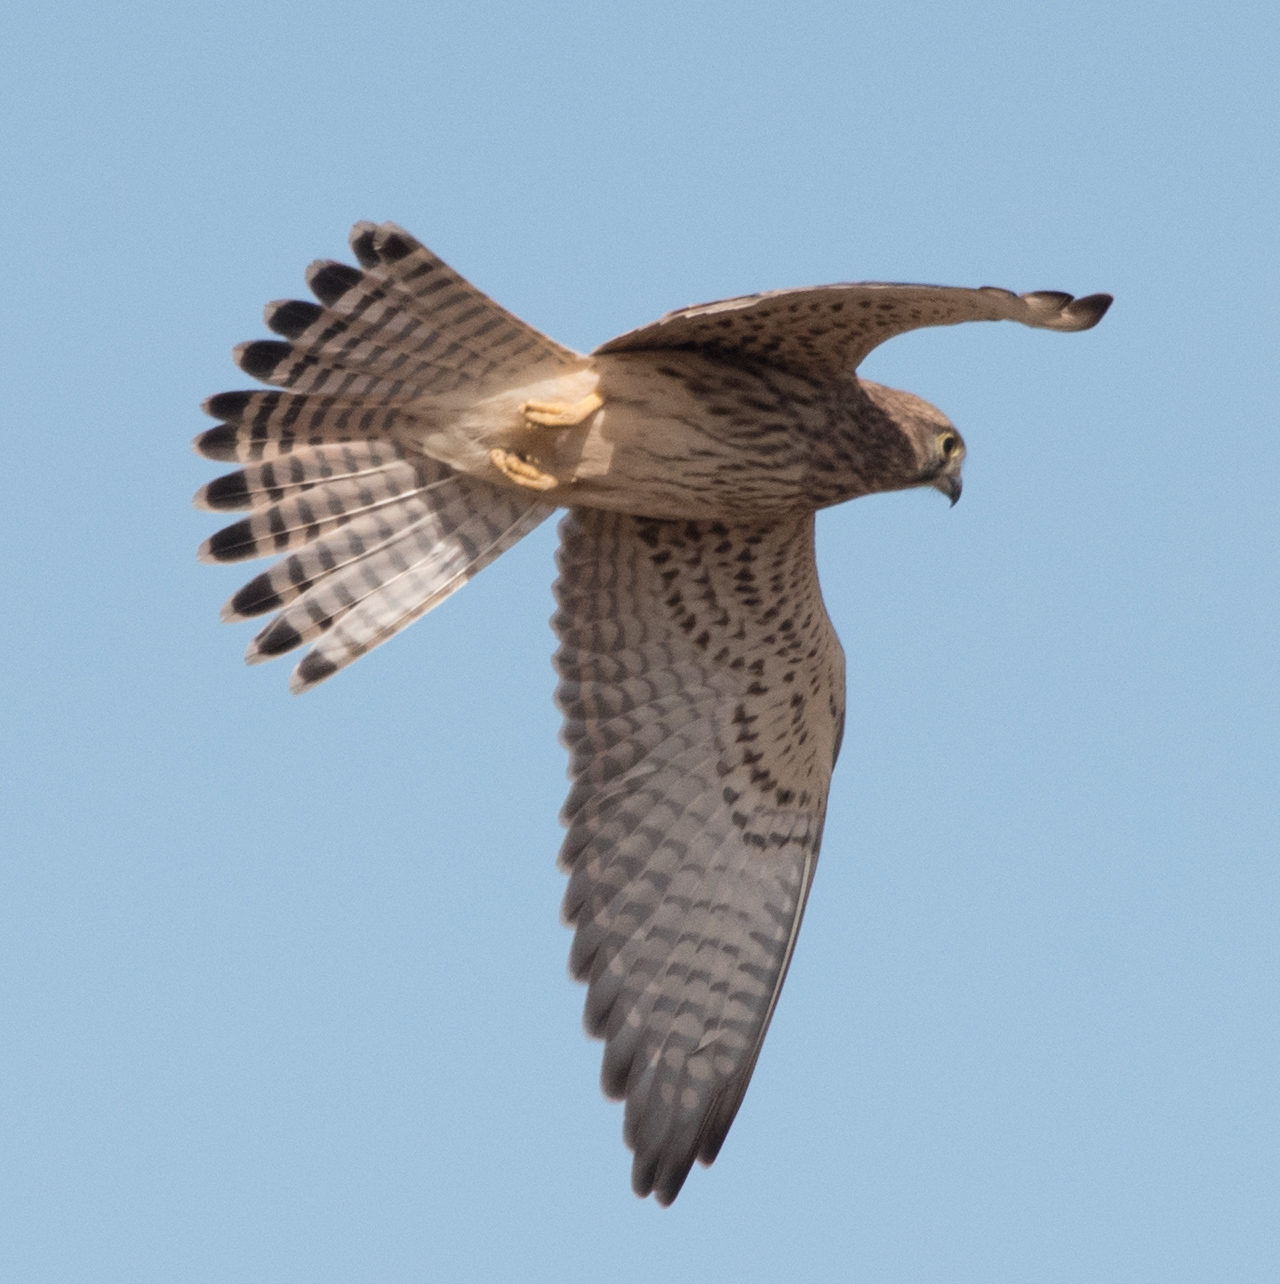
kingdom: Animalia
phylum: Chordata
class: Aves
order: Falconiformes
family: Falconidae
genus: Falco
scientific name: Falco tinnunculus
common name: Common kestrel
